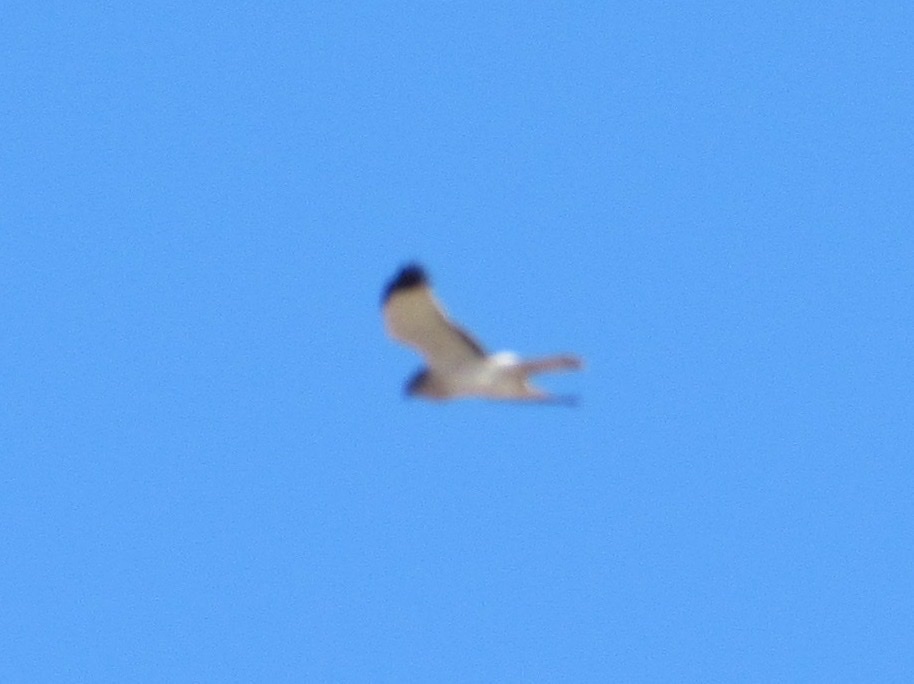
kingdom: Animalia
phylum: Chordata
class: Aves
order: Accipitriformes
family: Accipitridae
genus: Circus
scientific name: Circus cyaneus
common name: Hen harrier
